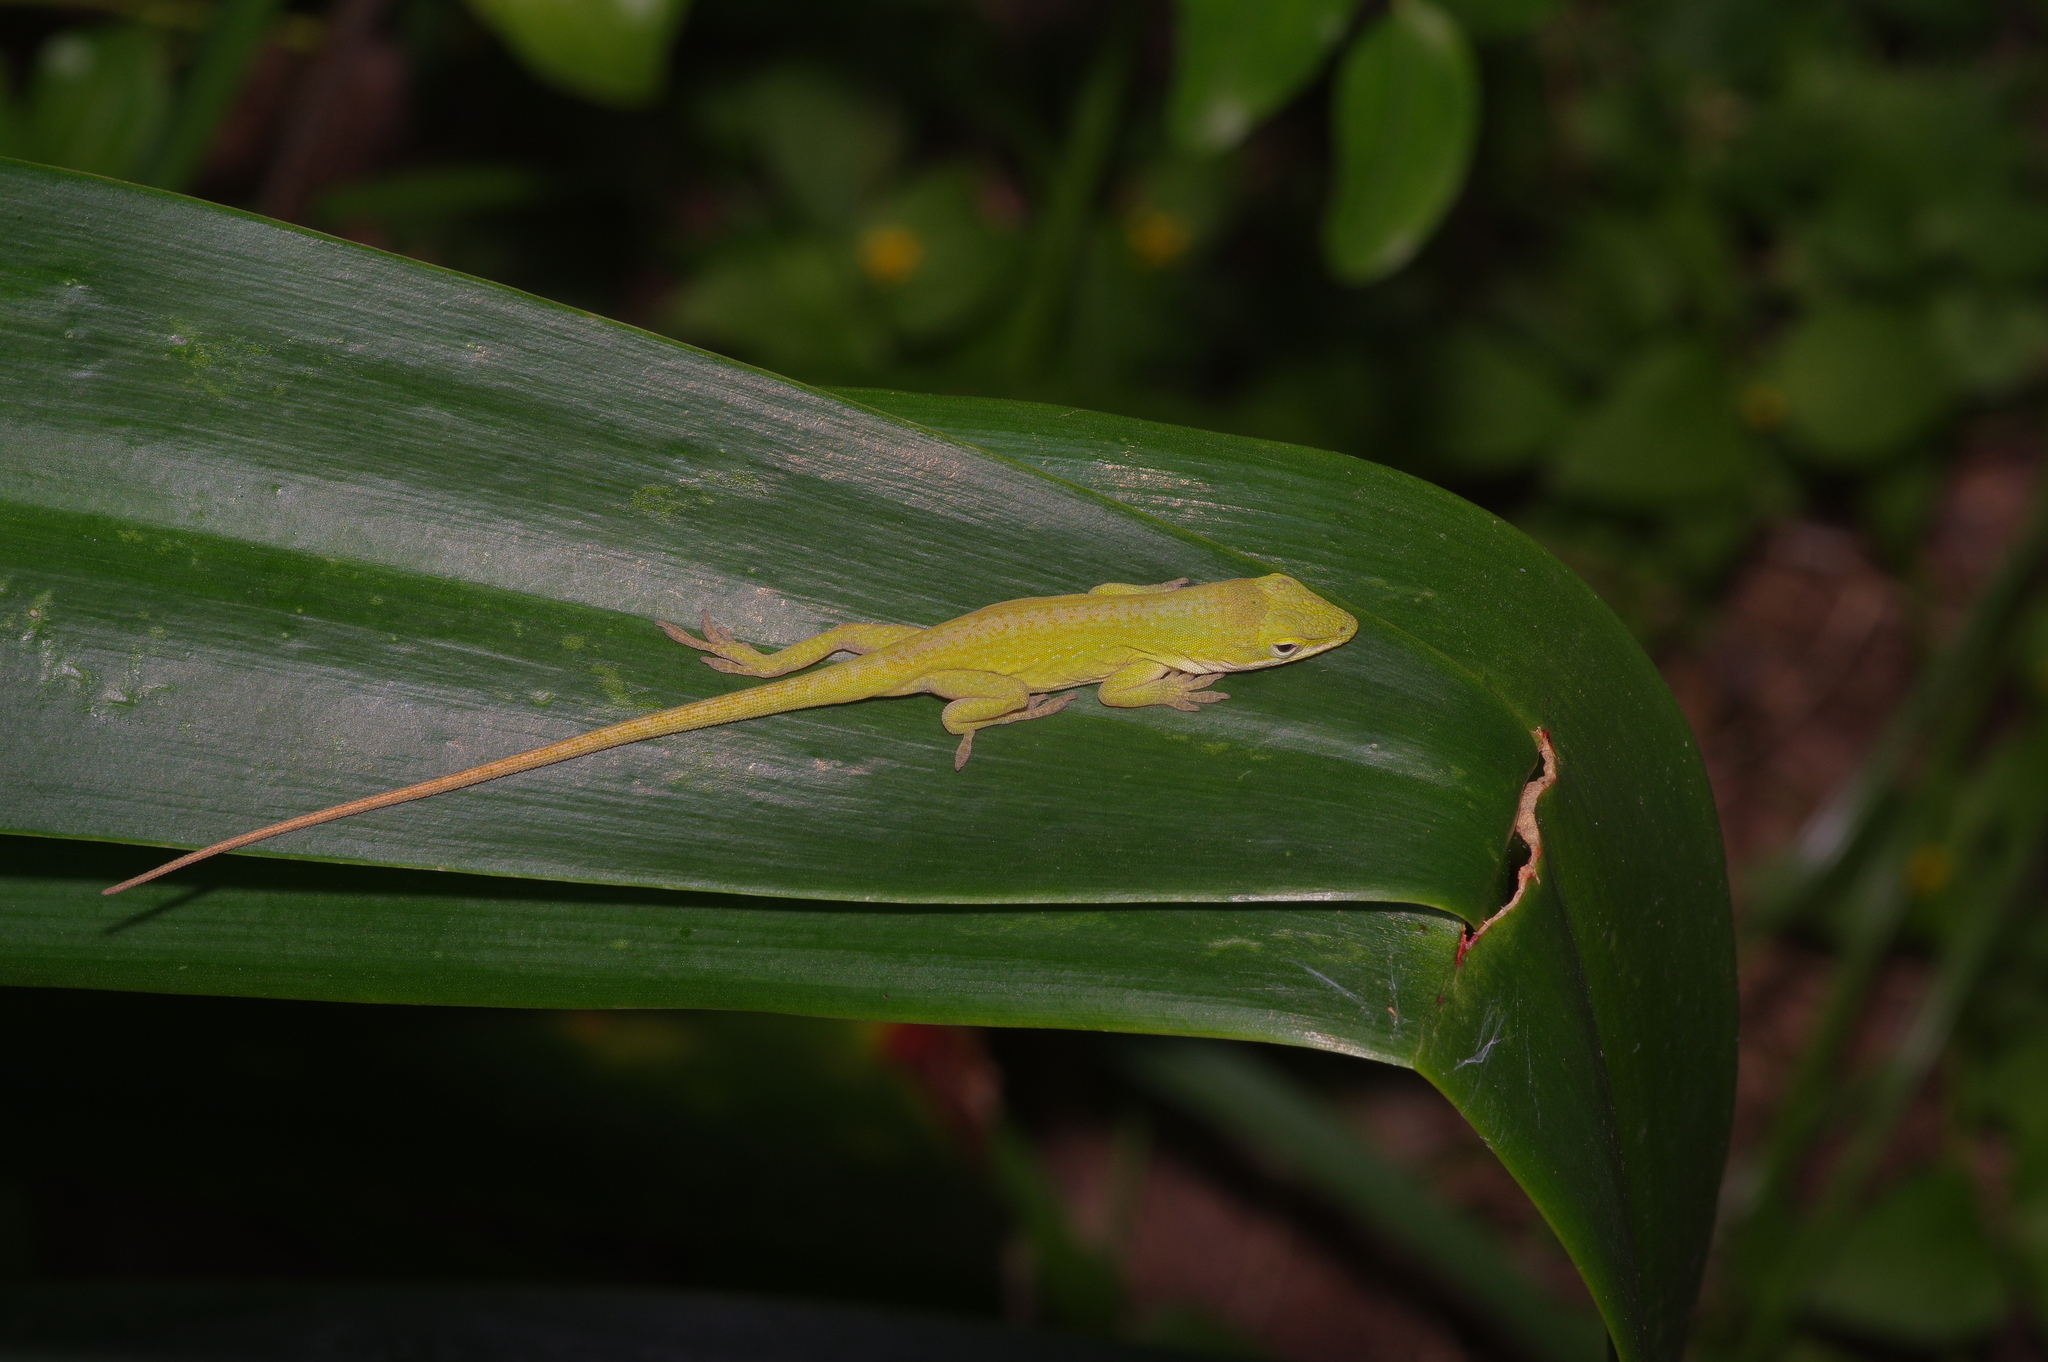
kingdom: Animalia
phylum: Chordata
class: Squamata
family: Dactyloidae
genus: Anolis
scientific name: Anolis carolinensis
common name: Green anole
